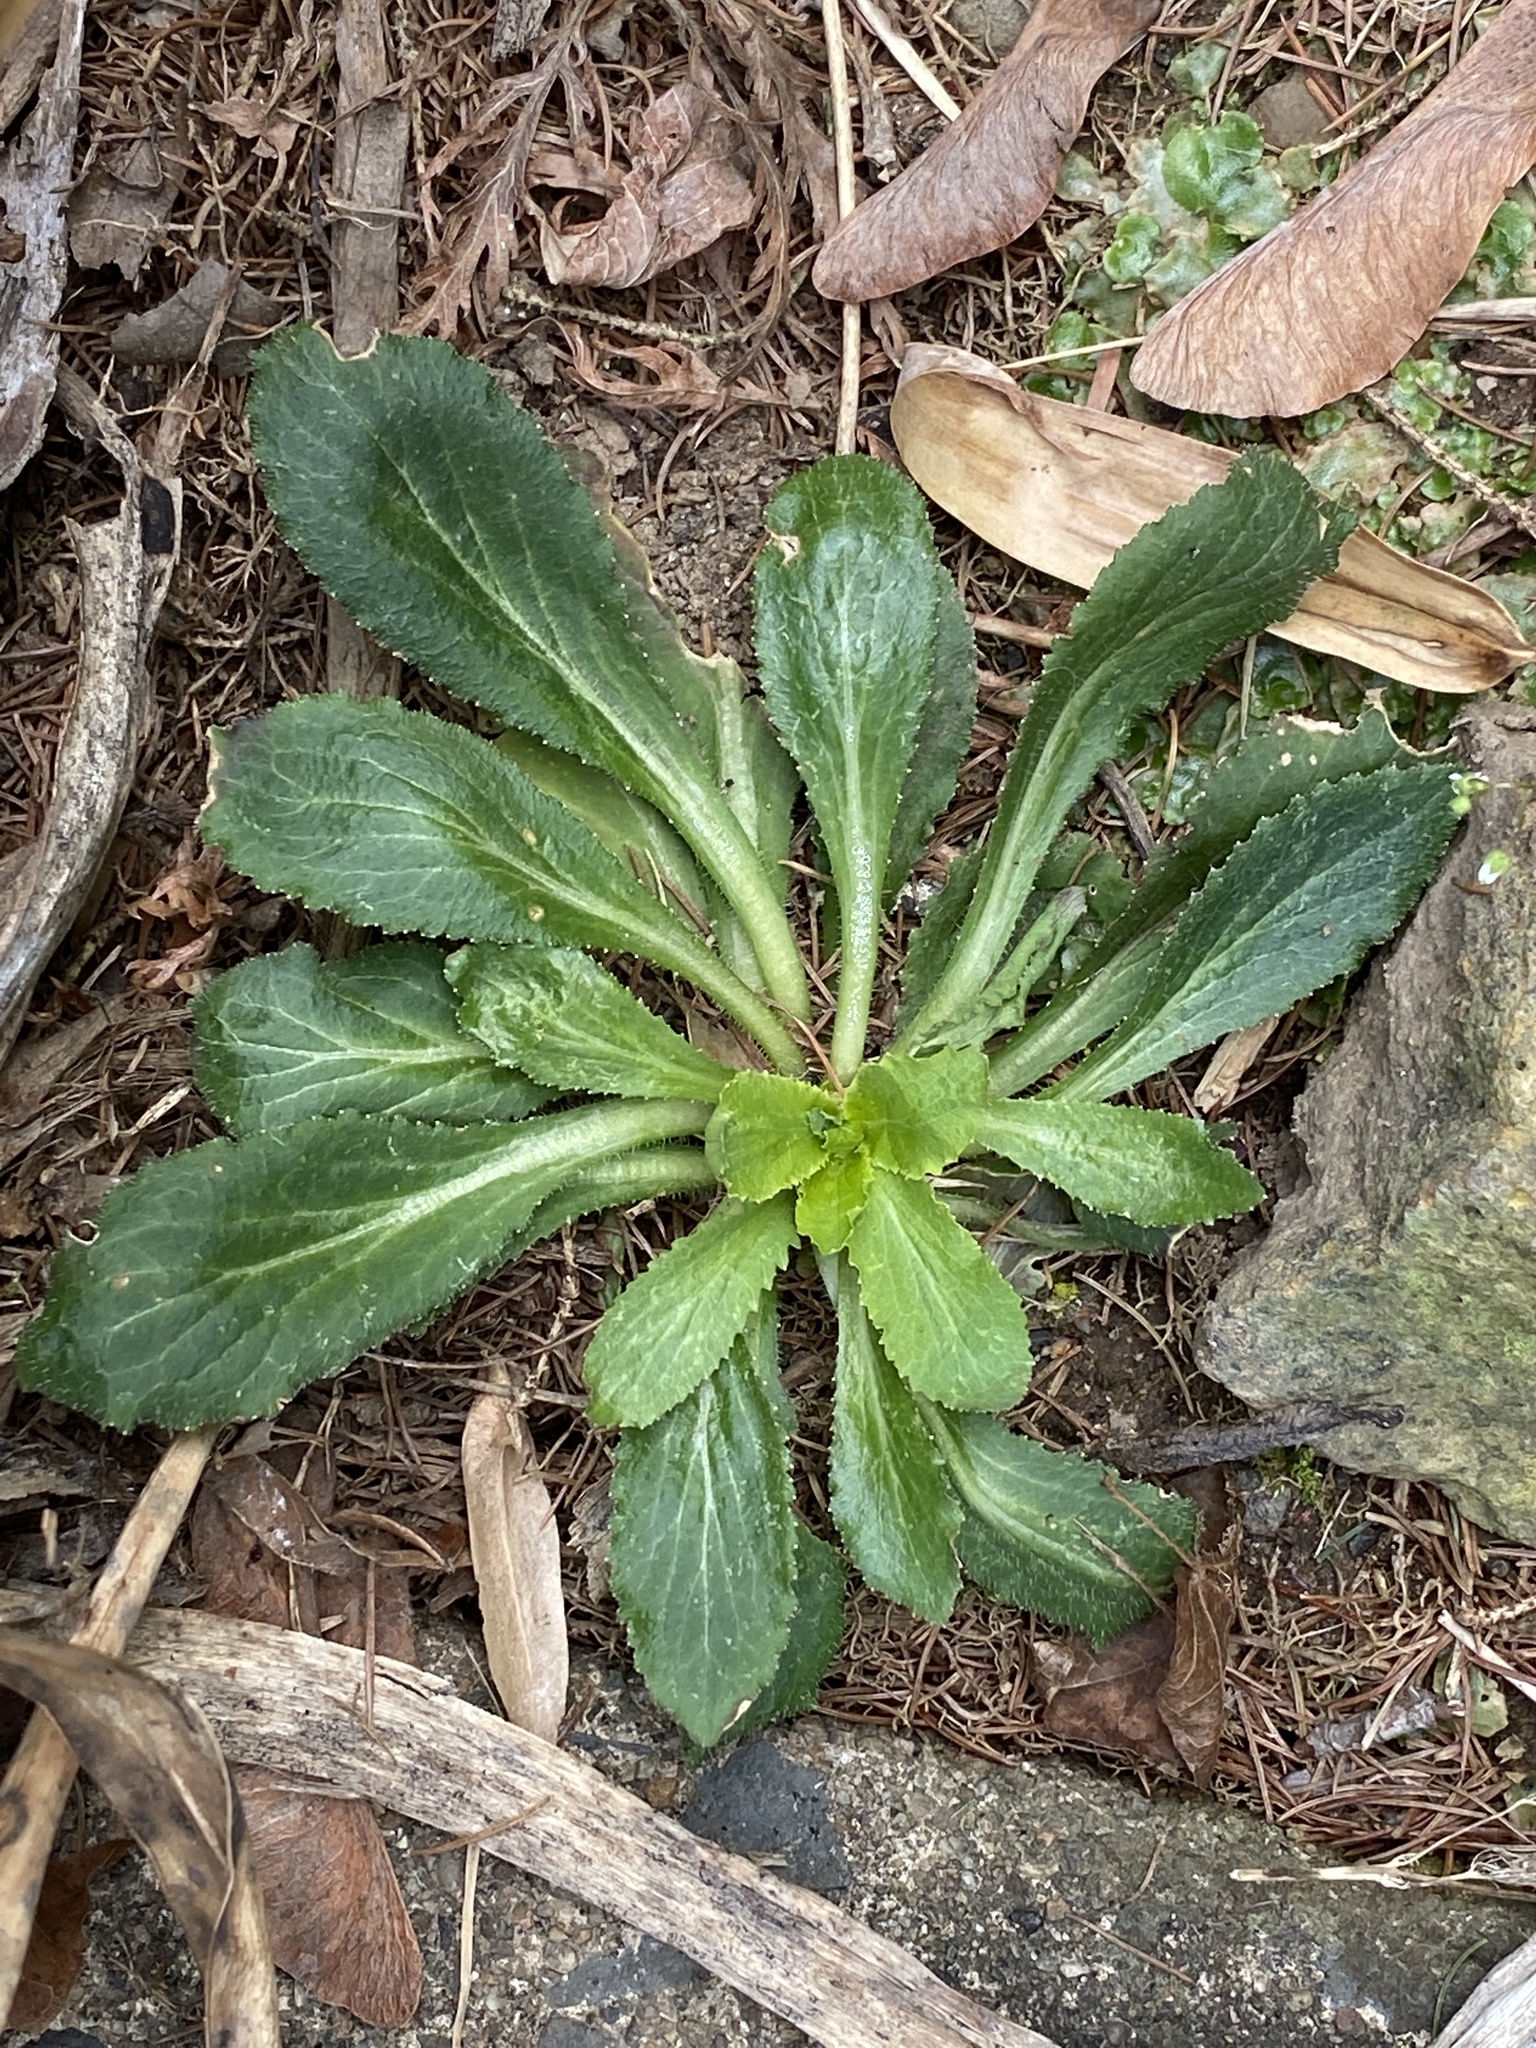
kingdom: Plantae
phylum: Tracheophyta
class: Magnoliopsida
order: Asterales
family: Campanulaceae
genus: Lobelia
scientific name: Lobelia inflata
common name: Indian tobacco
